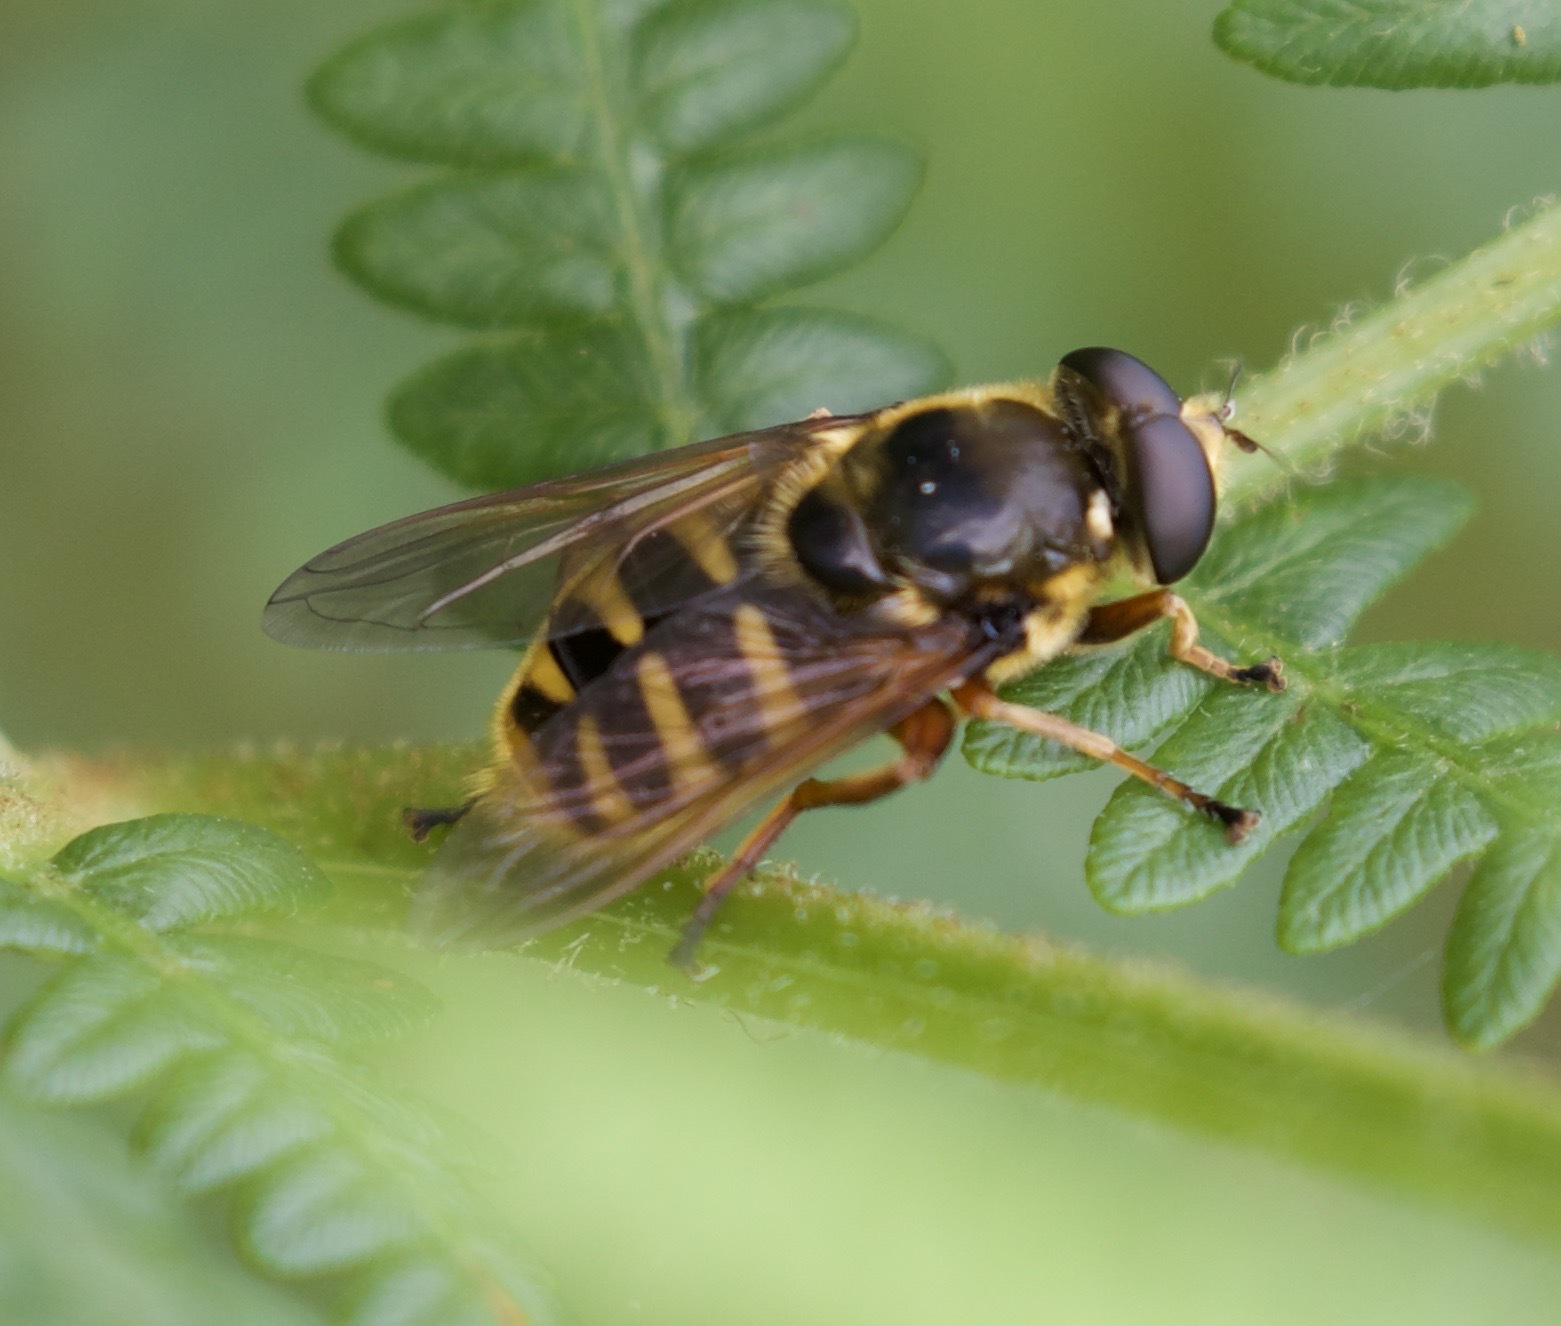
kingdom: Animalia
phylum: Arthropoda
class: Insecta
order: Diptera
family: Syrphidae
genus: Sericomyia
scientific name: Sericomyia silentis
